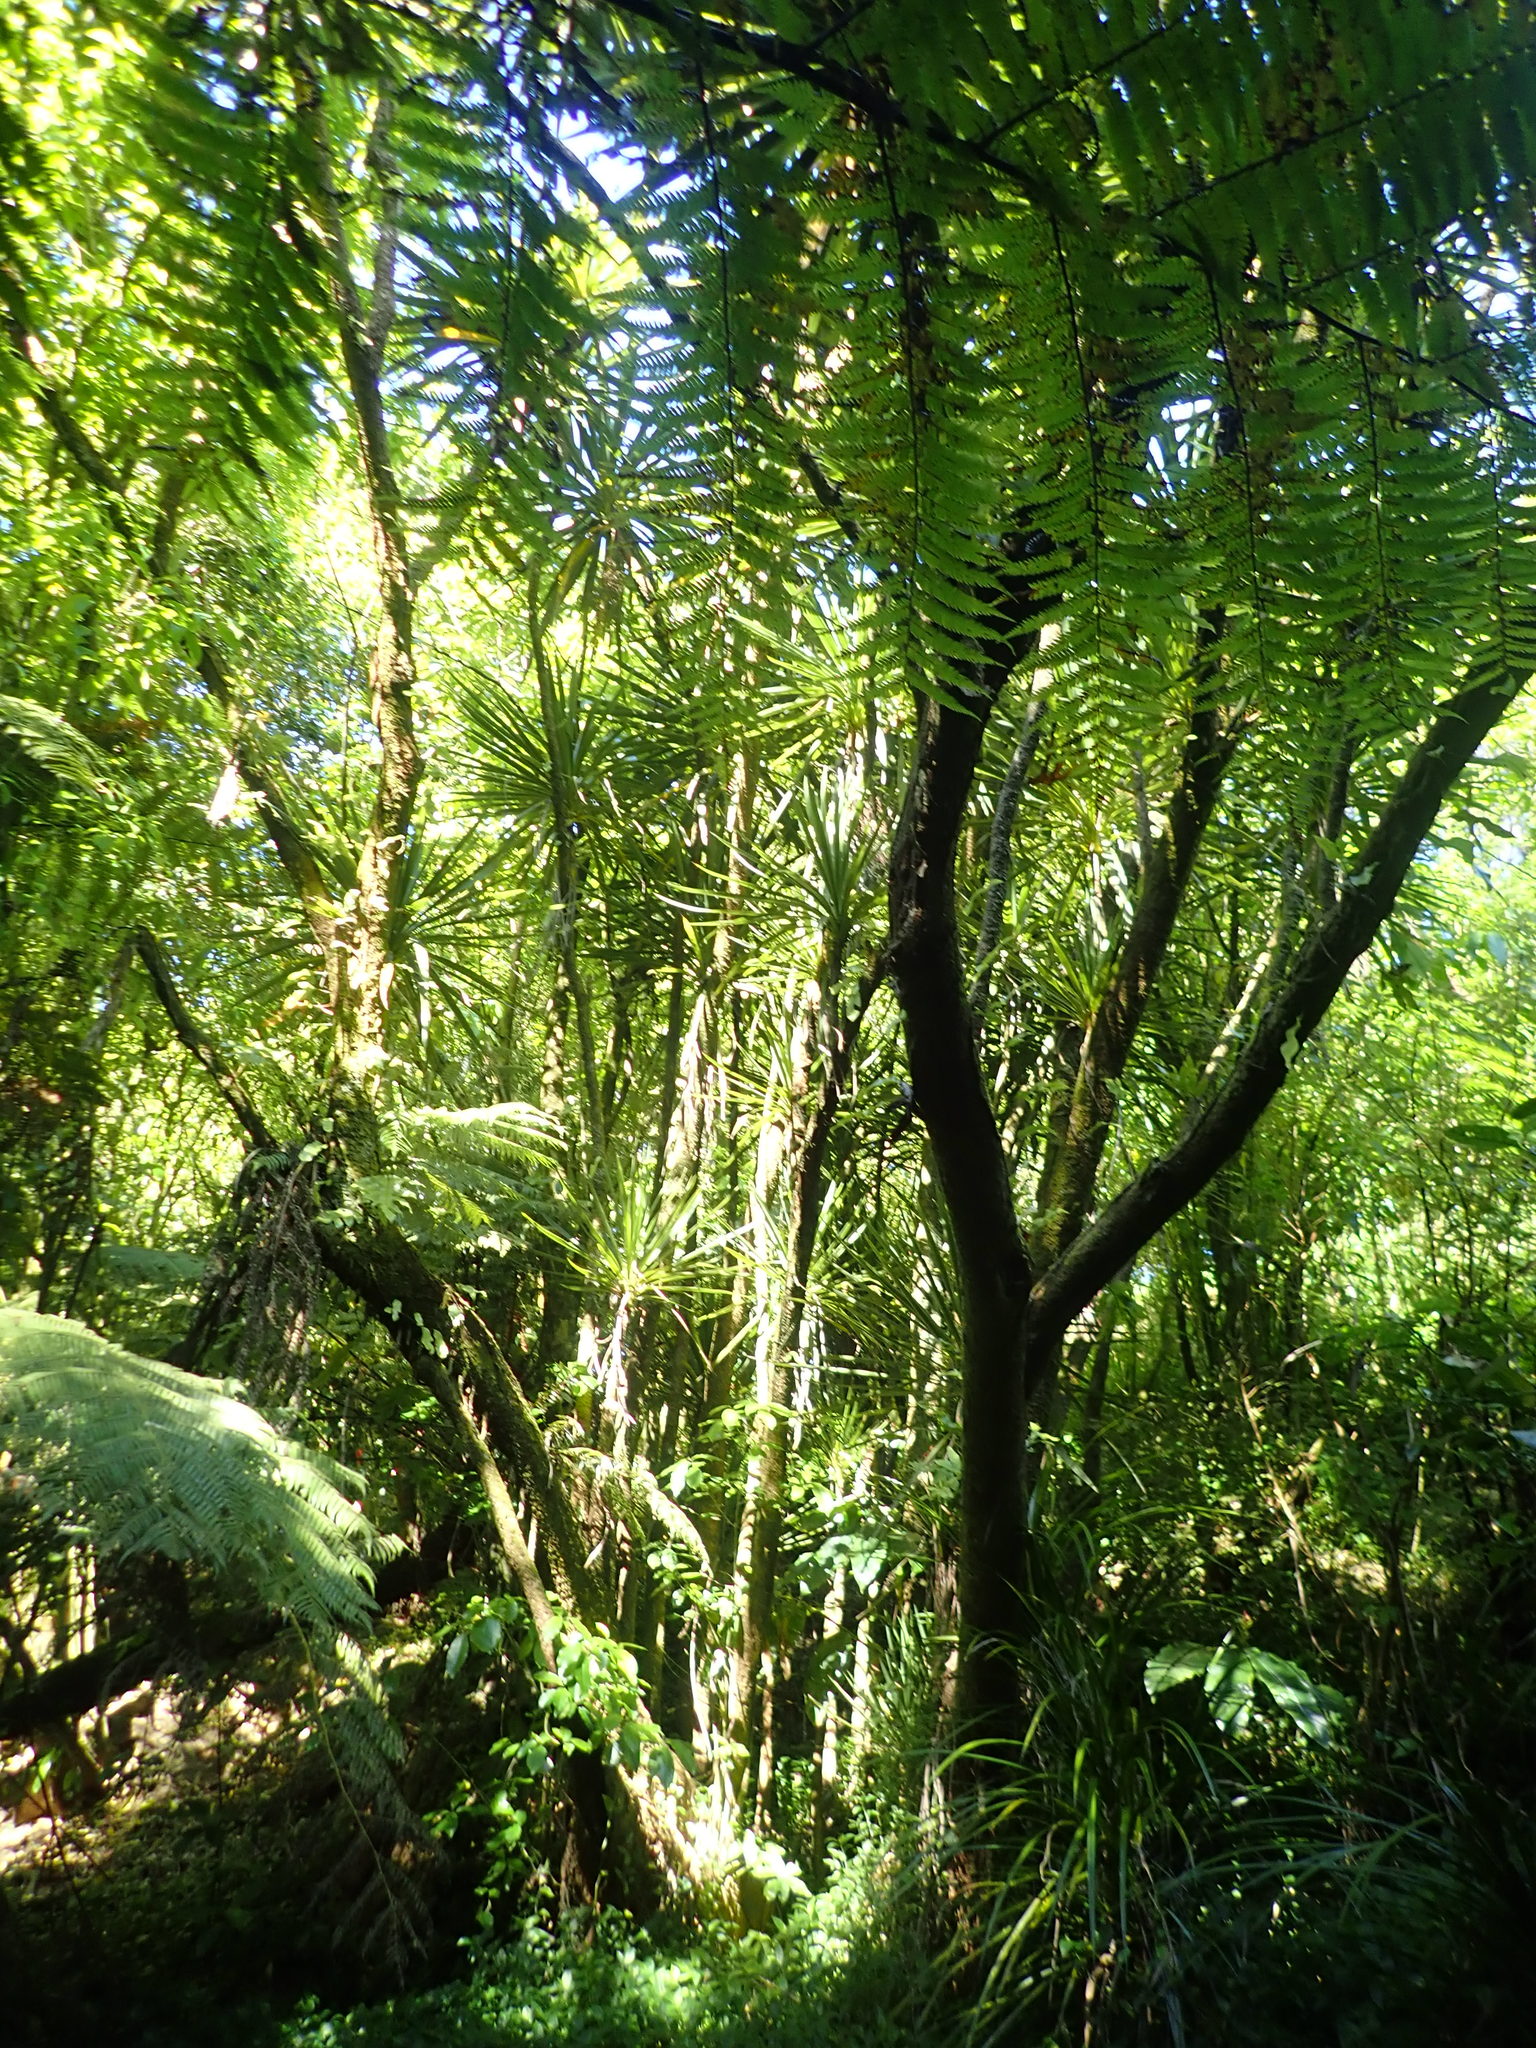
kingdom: Plantae
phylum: Tracheophyta
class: Liliopsida
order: Asparagales
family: Asparagaceae
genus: Cordyline
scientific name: Cordyline australis
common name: Cabbage-palm
